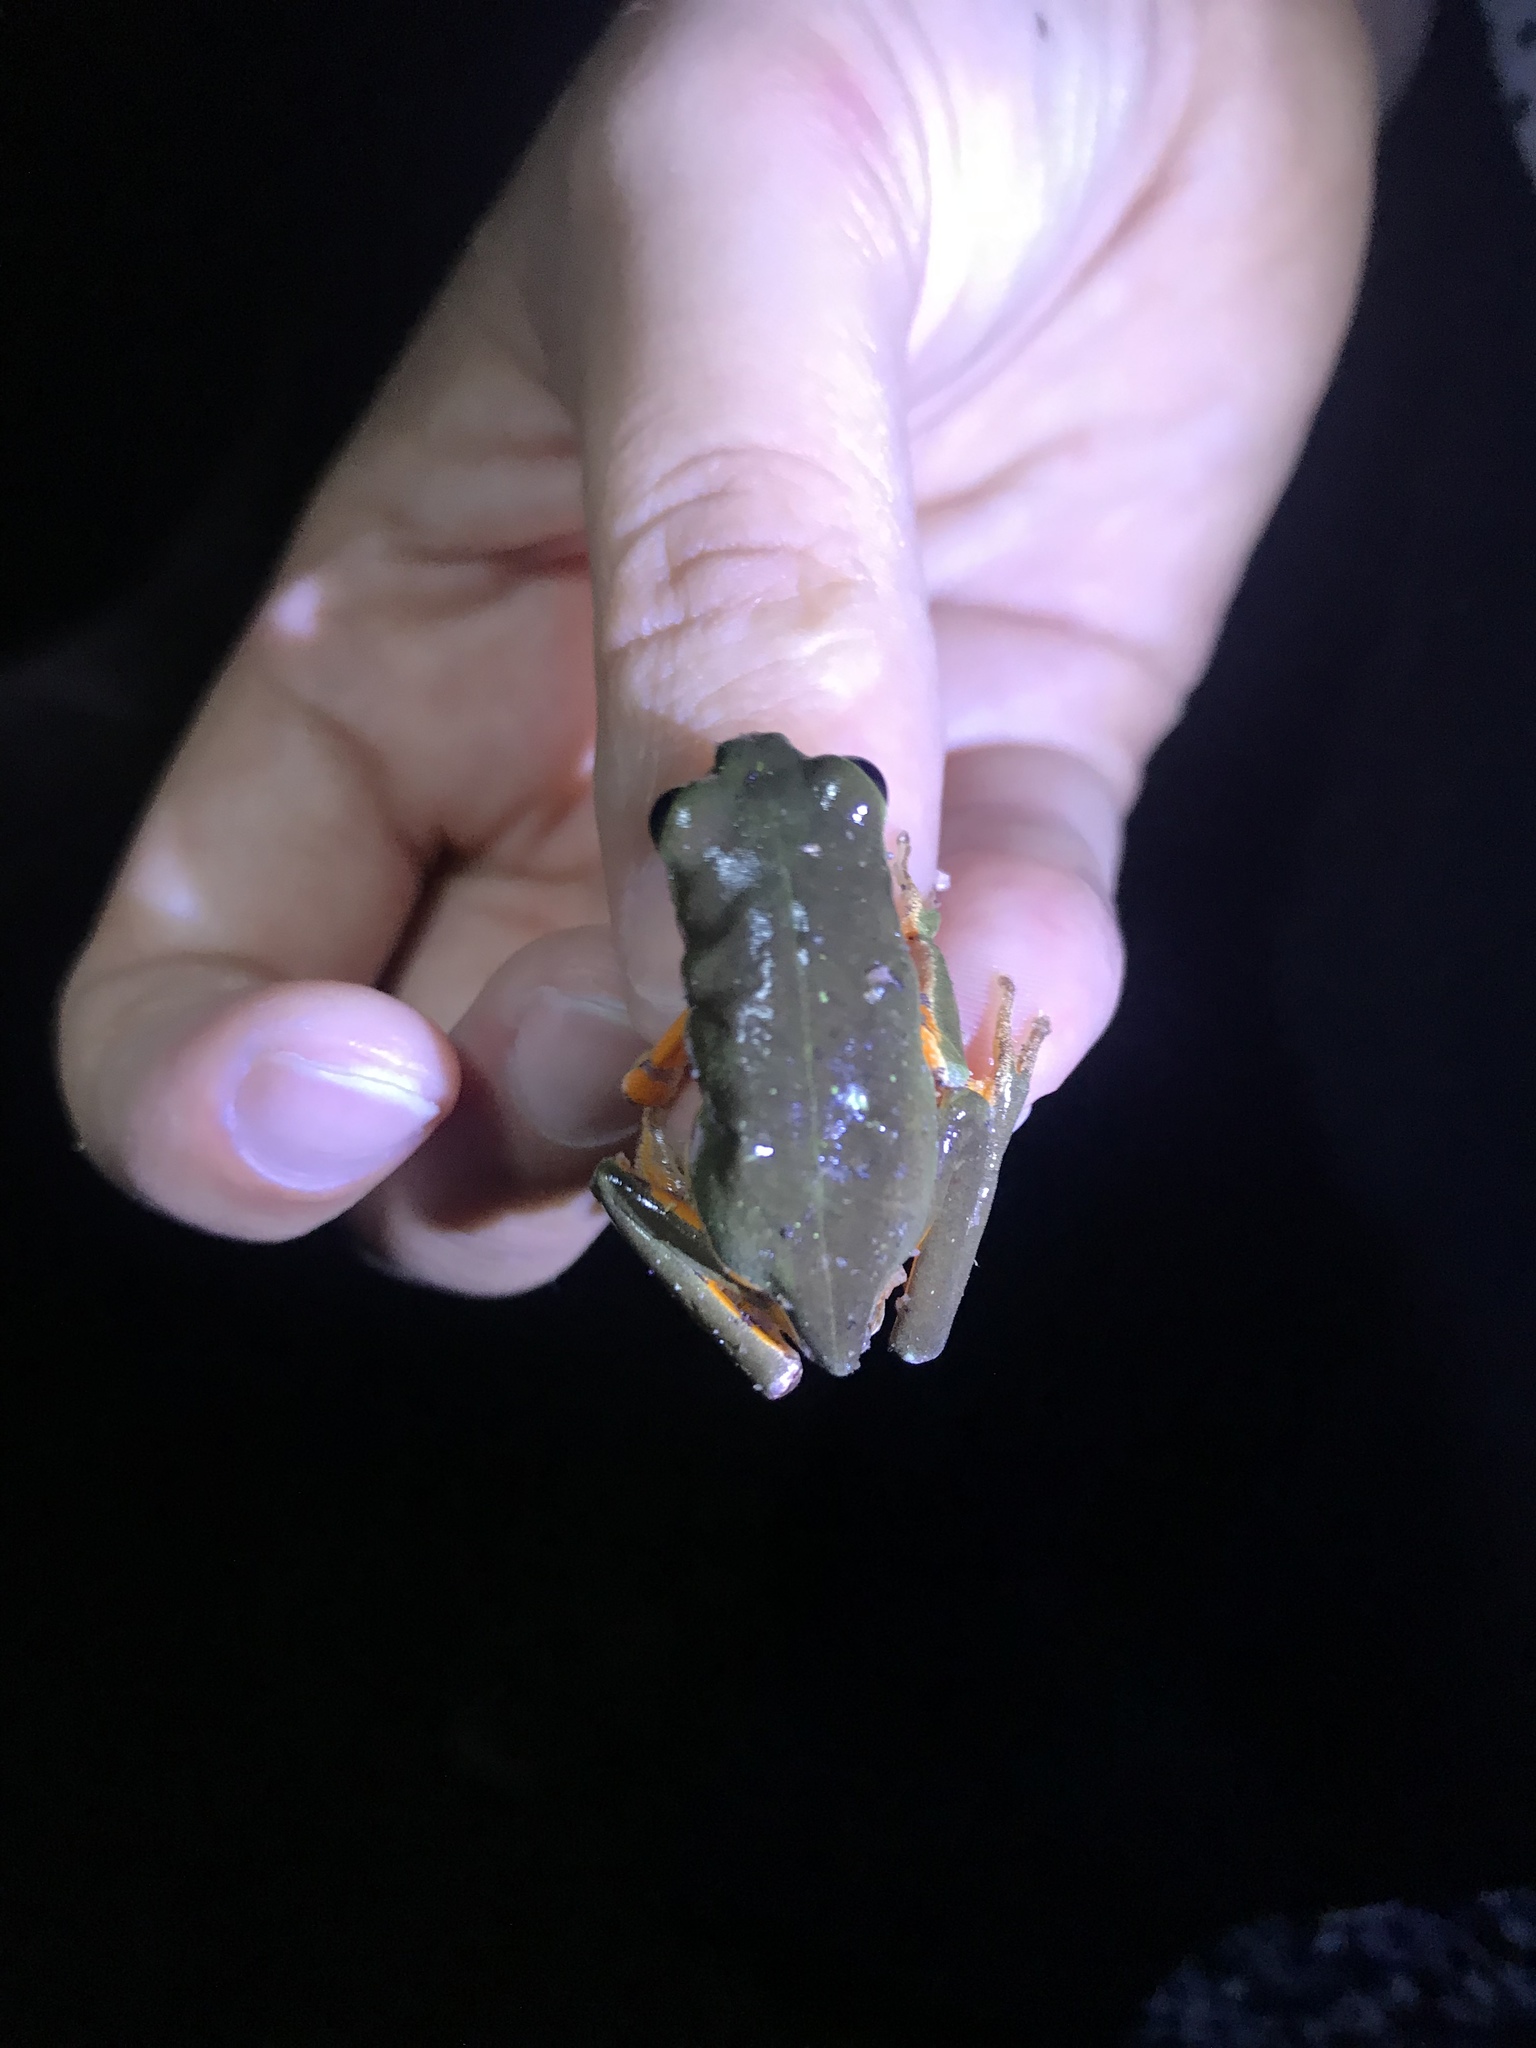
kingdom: Animalia
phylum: Chordata
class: Amphibia
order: Anura
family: Phyllomedusidae
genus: Pithecopus
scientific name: Pithecopus gonzagai
